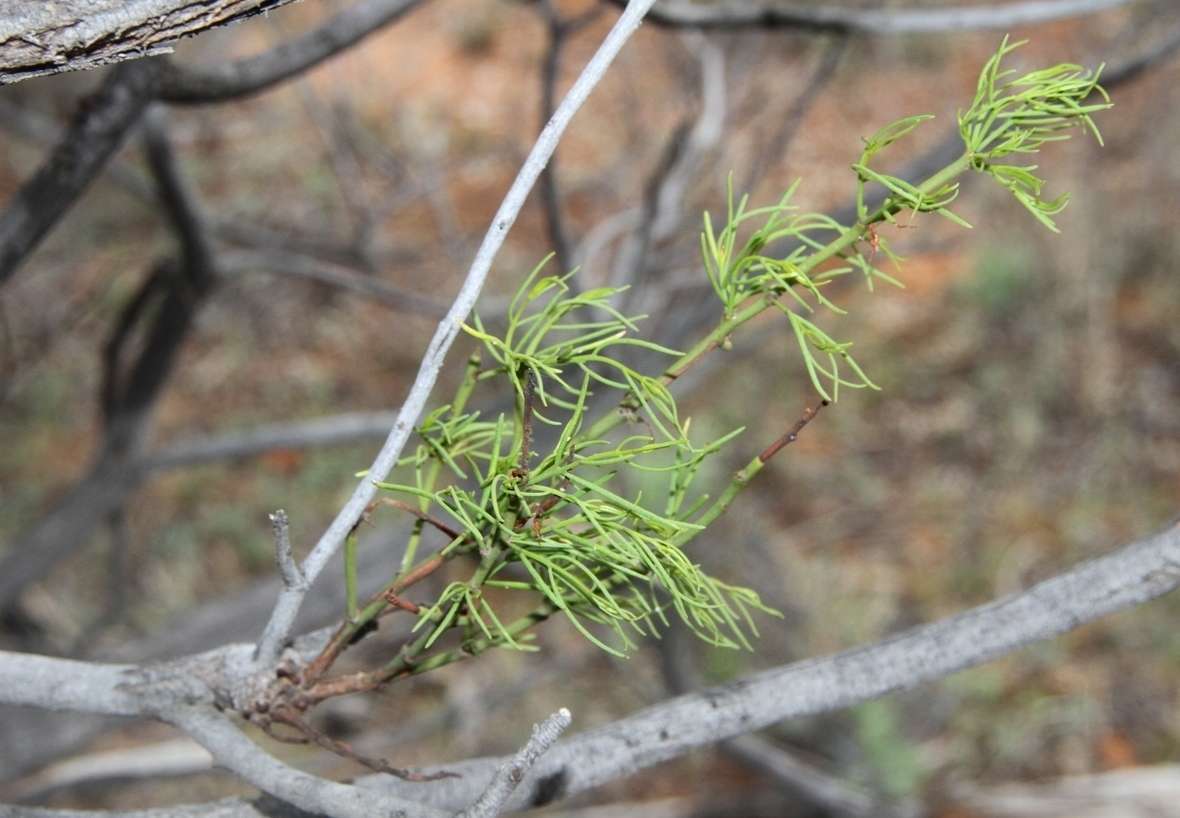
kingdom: Plantae
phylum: Tracheophyta
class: Magnoliopsida
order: Santalales
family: Loranthaceae
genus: Amyema
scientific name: Amyema preissii
